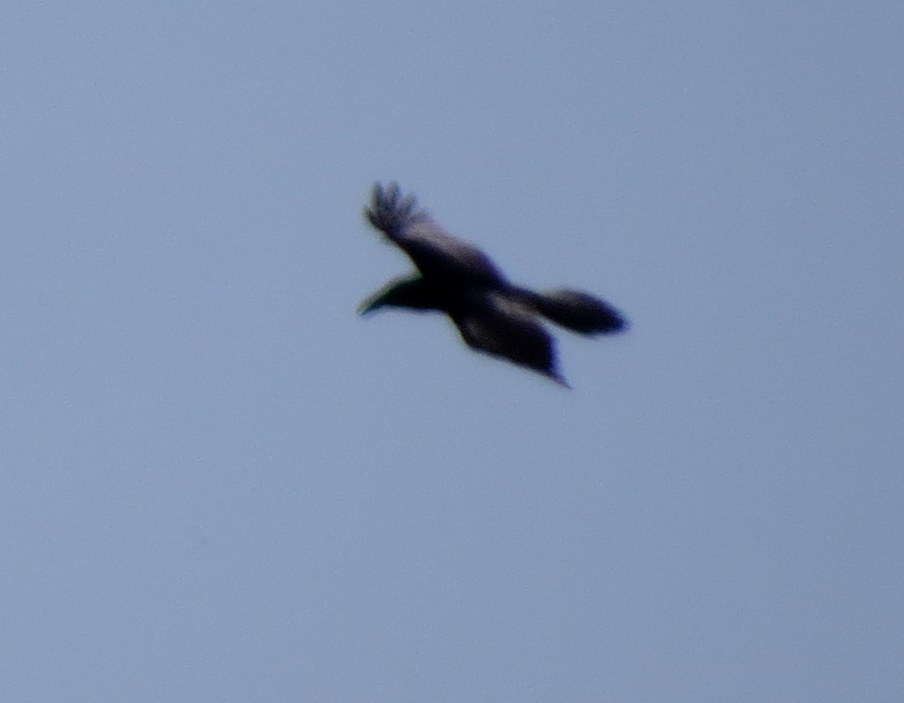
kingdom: Animalia
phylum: Chordata
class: Aves
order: Passeriformes
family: Corvidae
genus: Corvus
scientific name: Corvus corax
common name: Common raven
